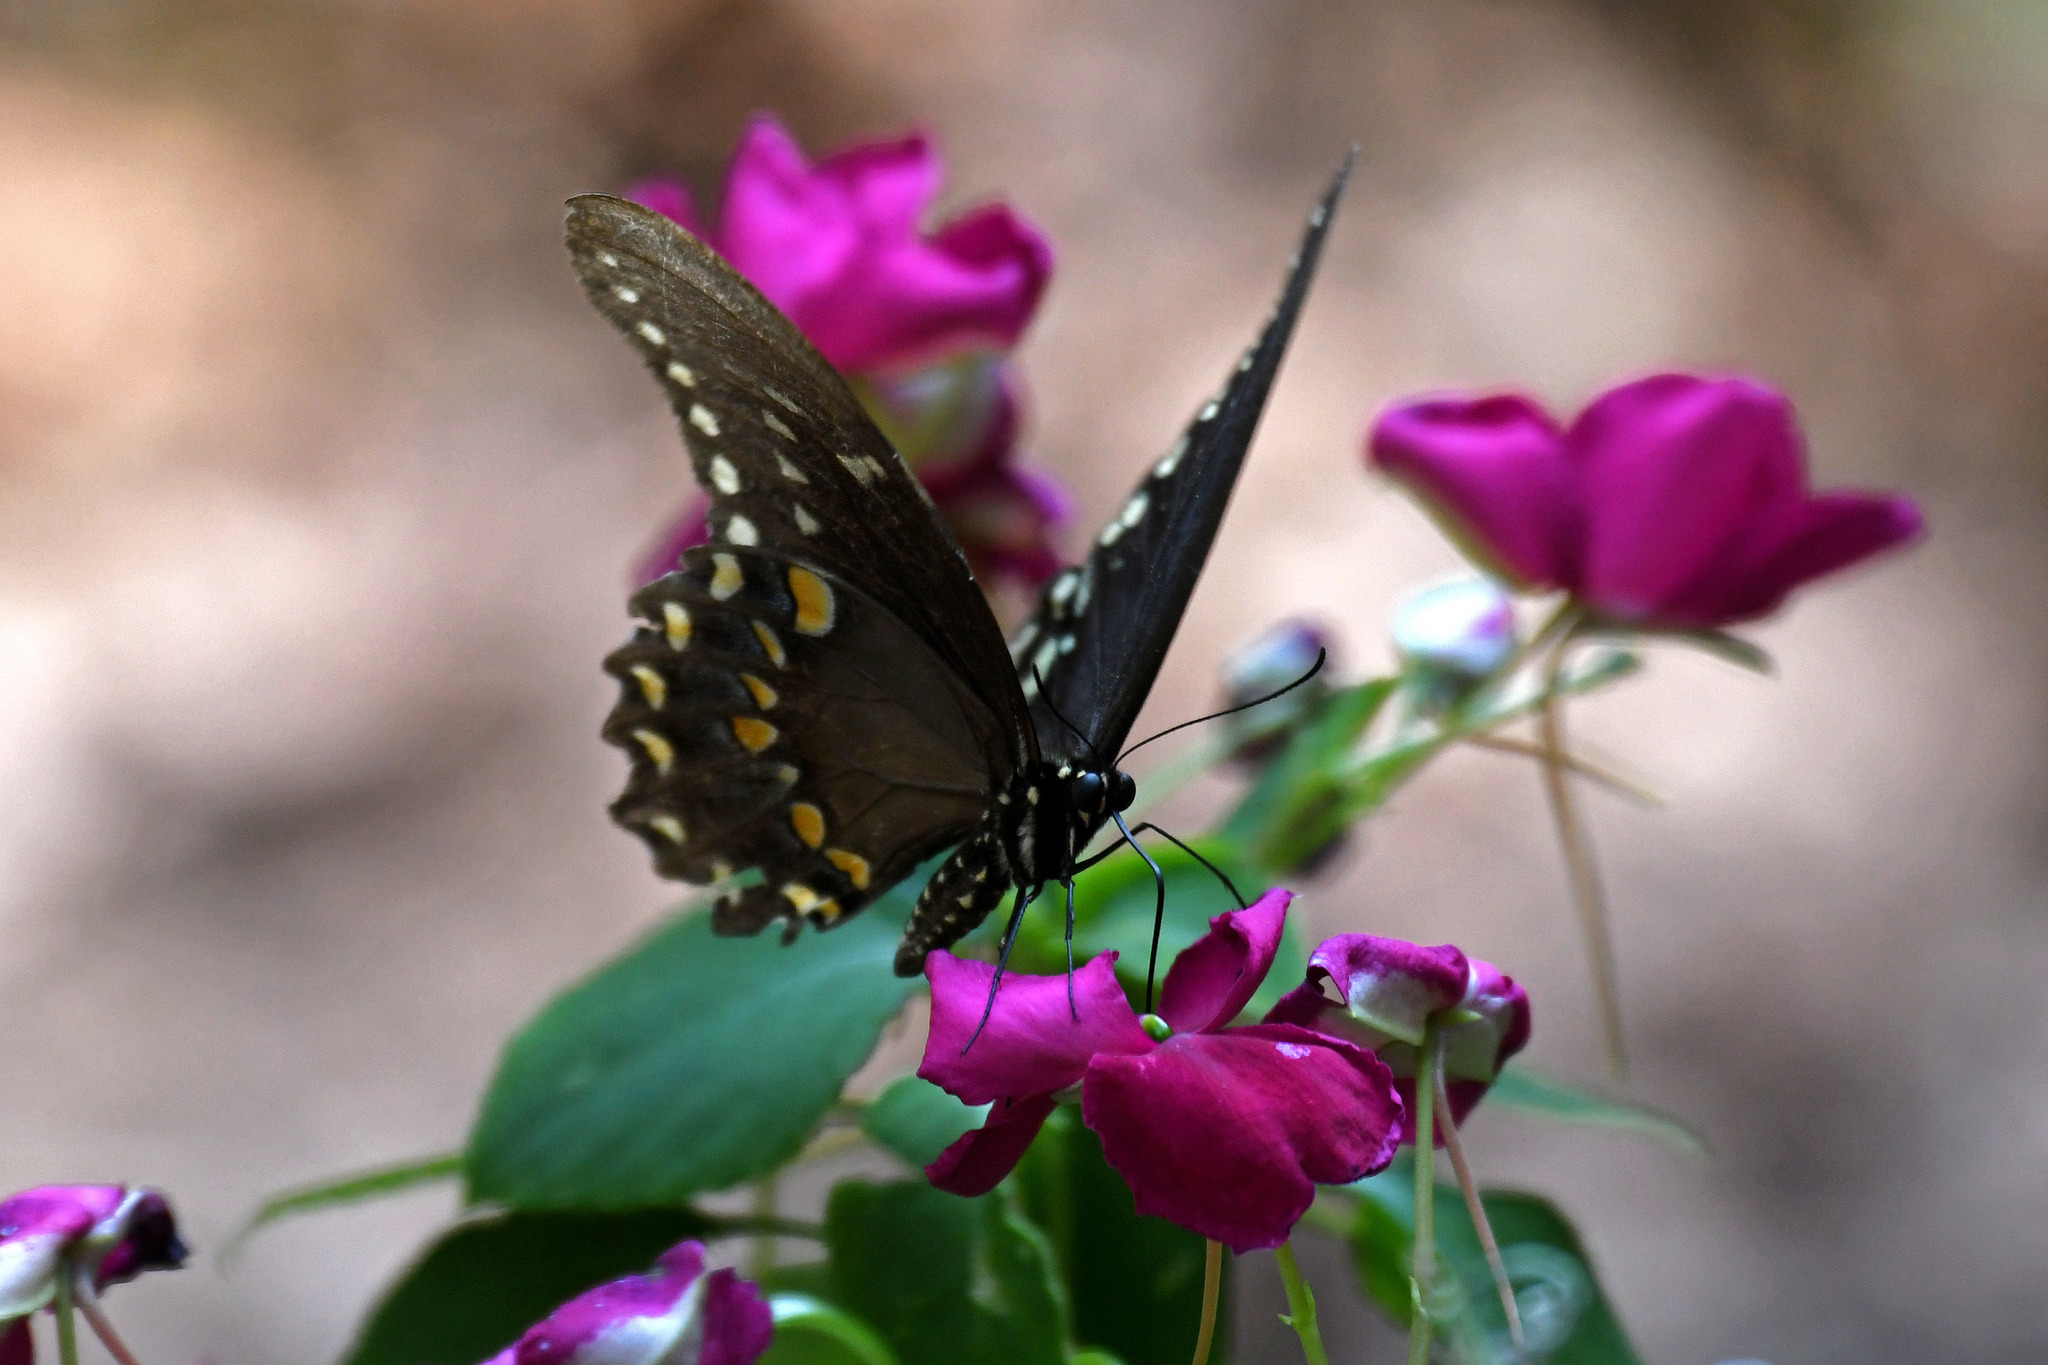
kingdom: Animalia
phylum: Arthropoda
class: Insecta
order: Lepidoptera
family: Papilionidae
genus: Papilio
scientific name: Papilio troilus
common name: Spicebush swallowtail
